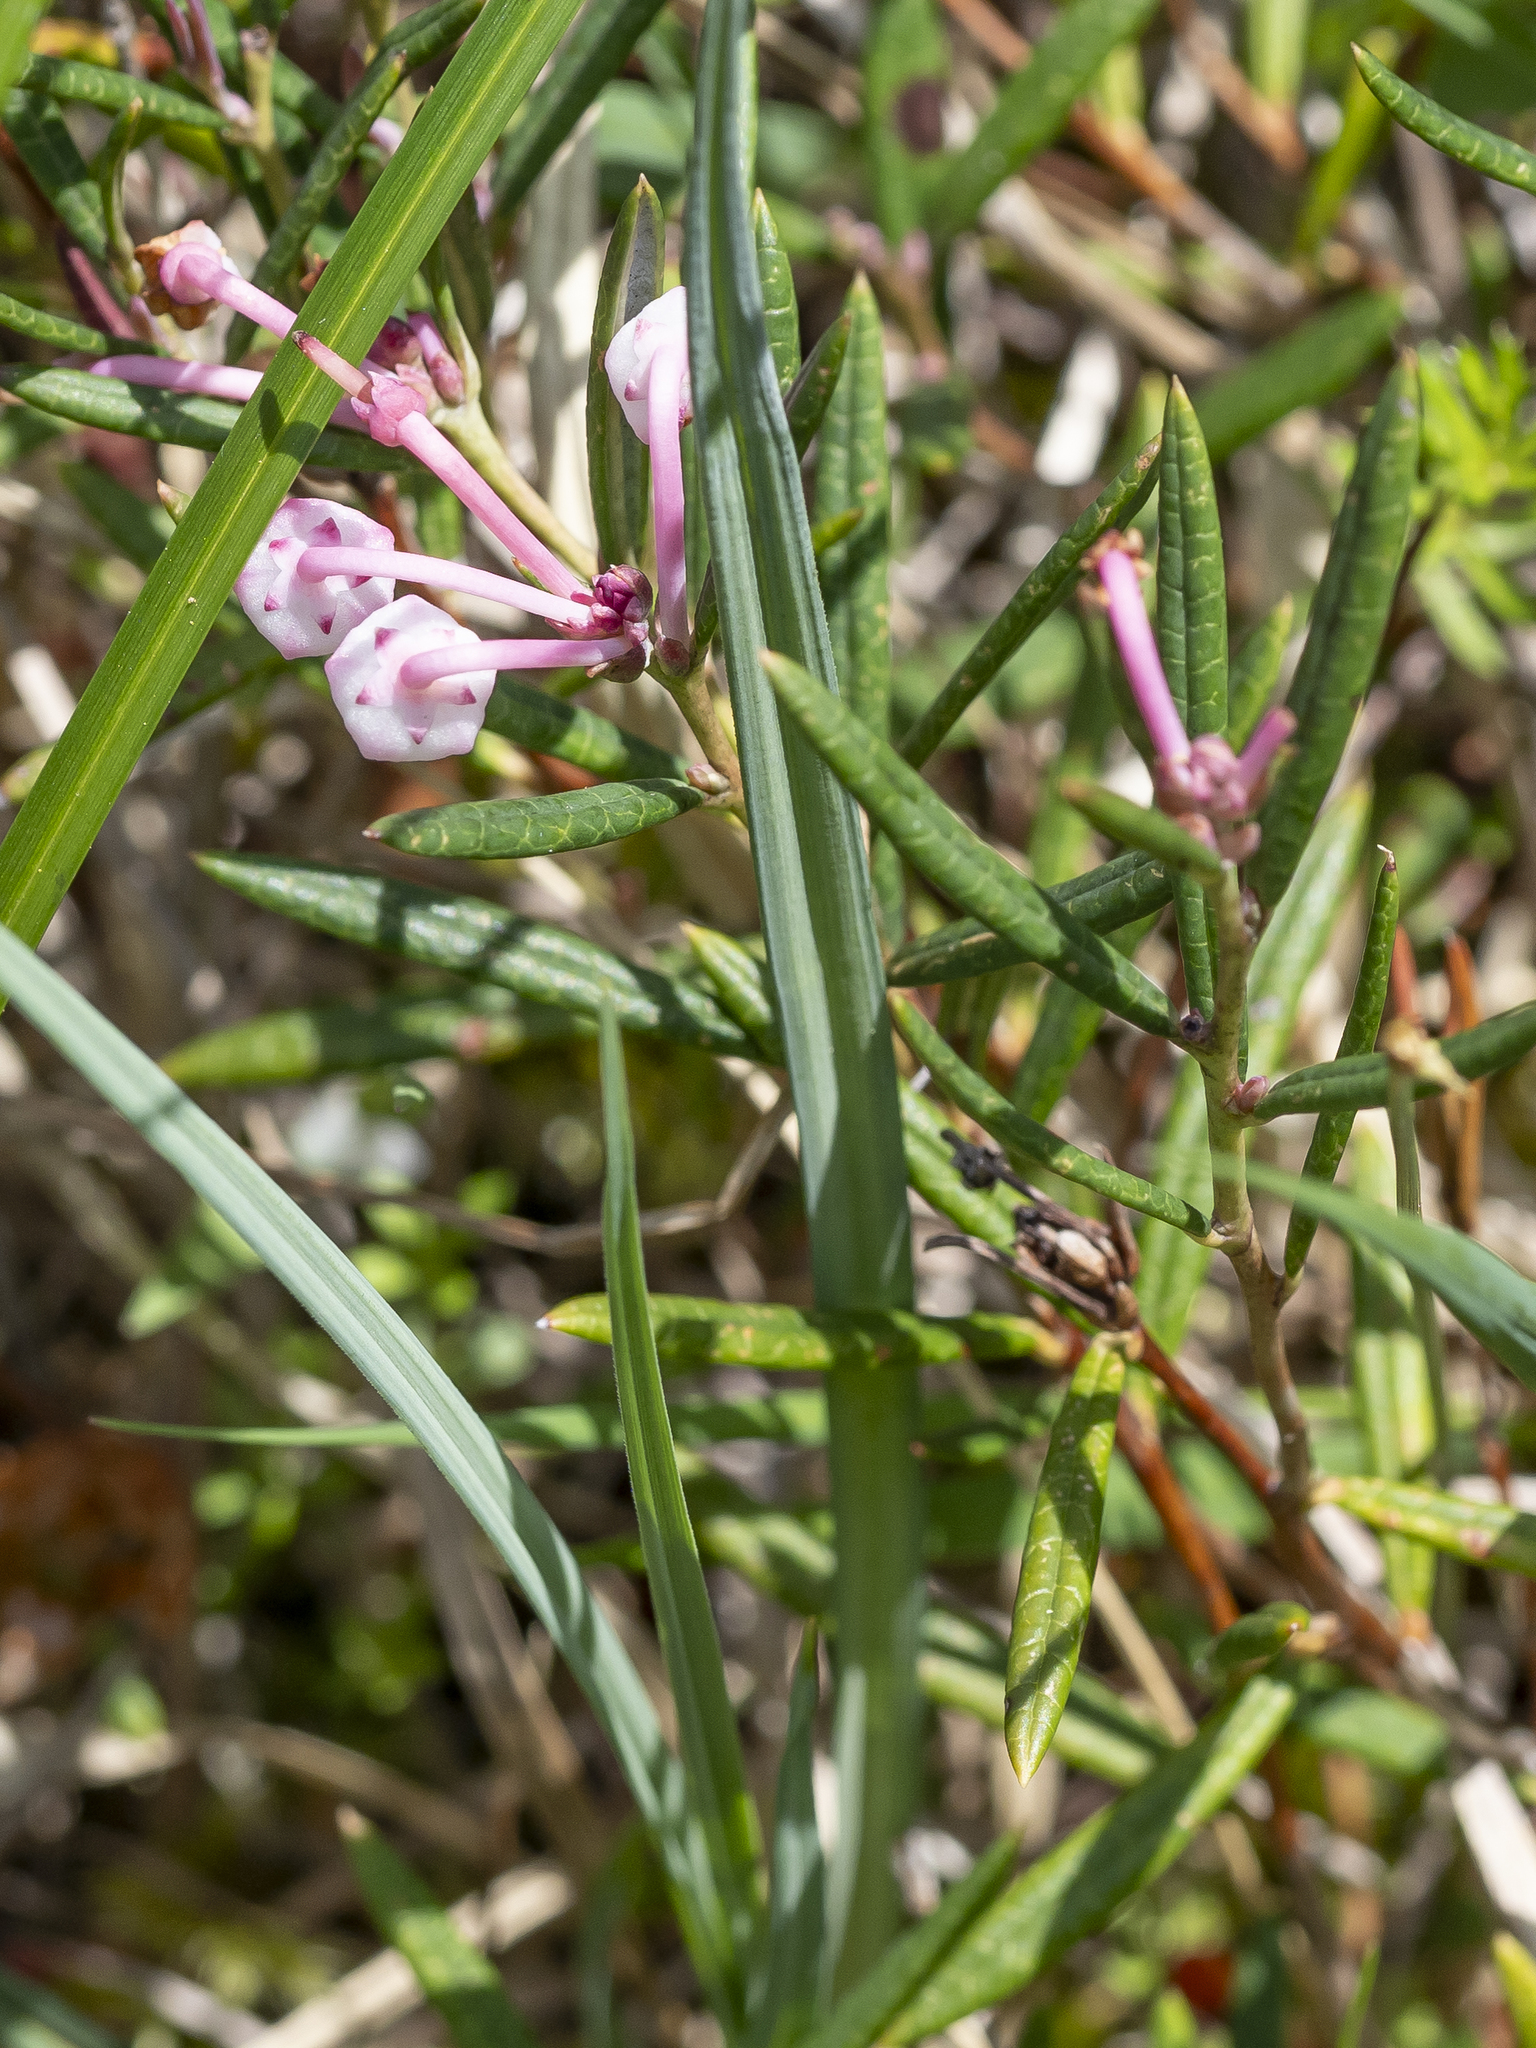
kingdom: Plantae
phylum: Tracheophyta
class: Magnoliopsida
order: Ericales
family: Ericaceae
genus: Andromeda
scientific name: Andromeda polifolia
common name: Bog-rosemary
